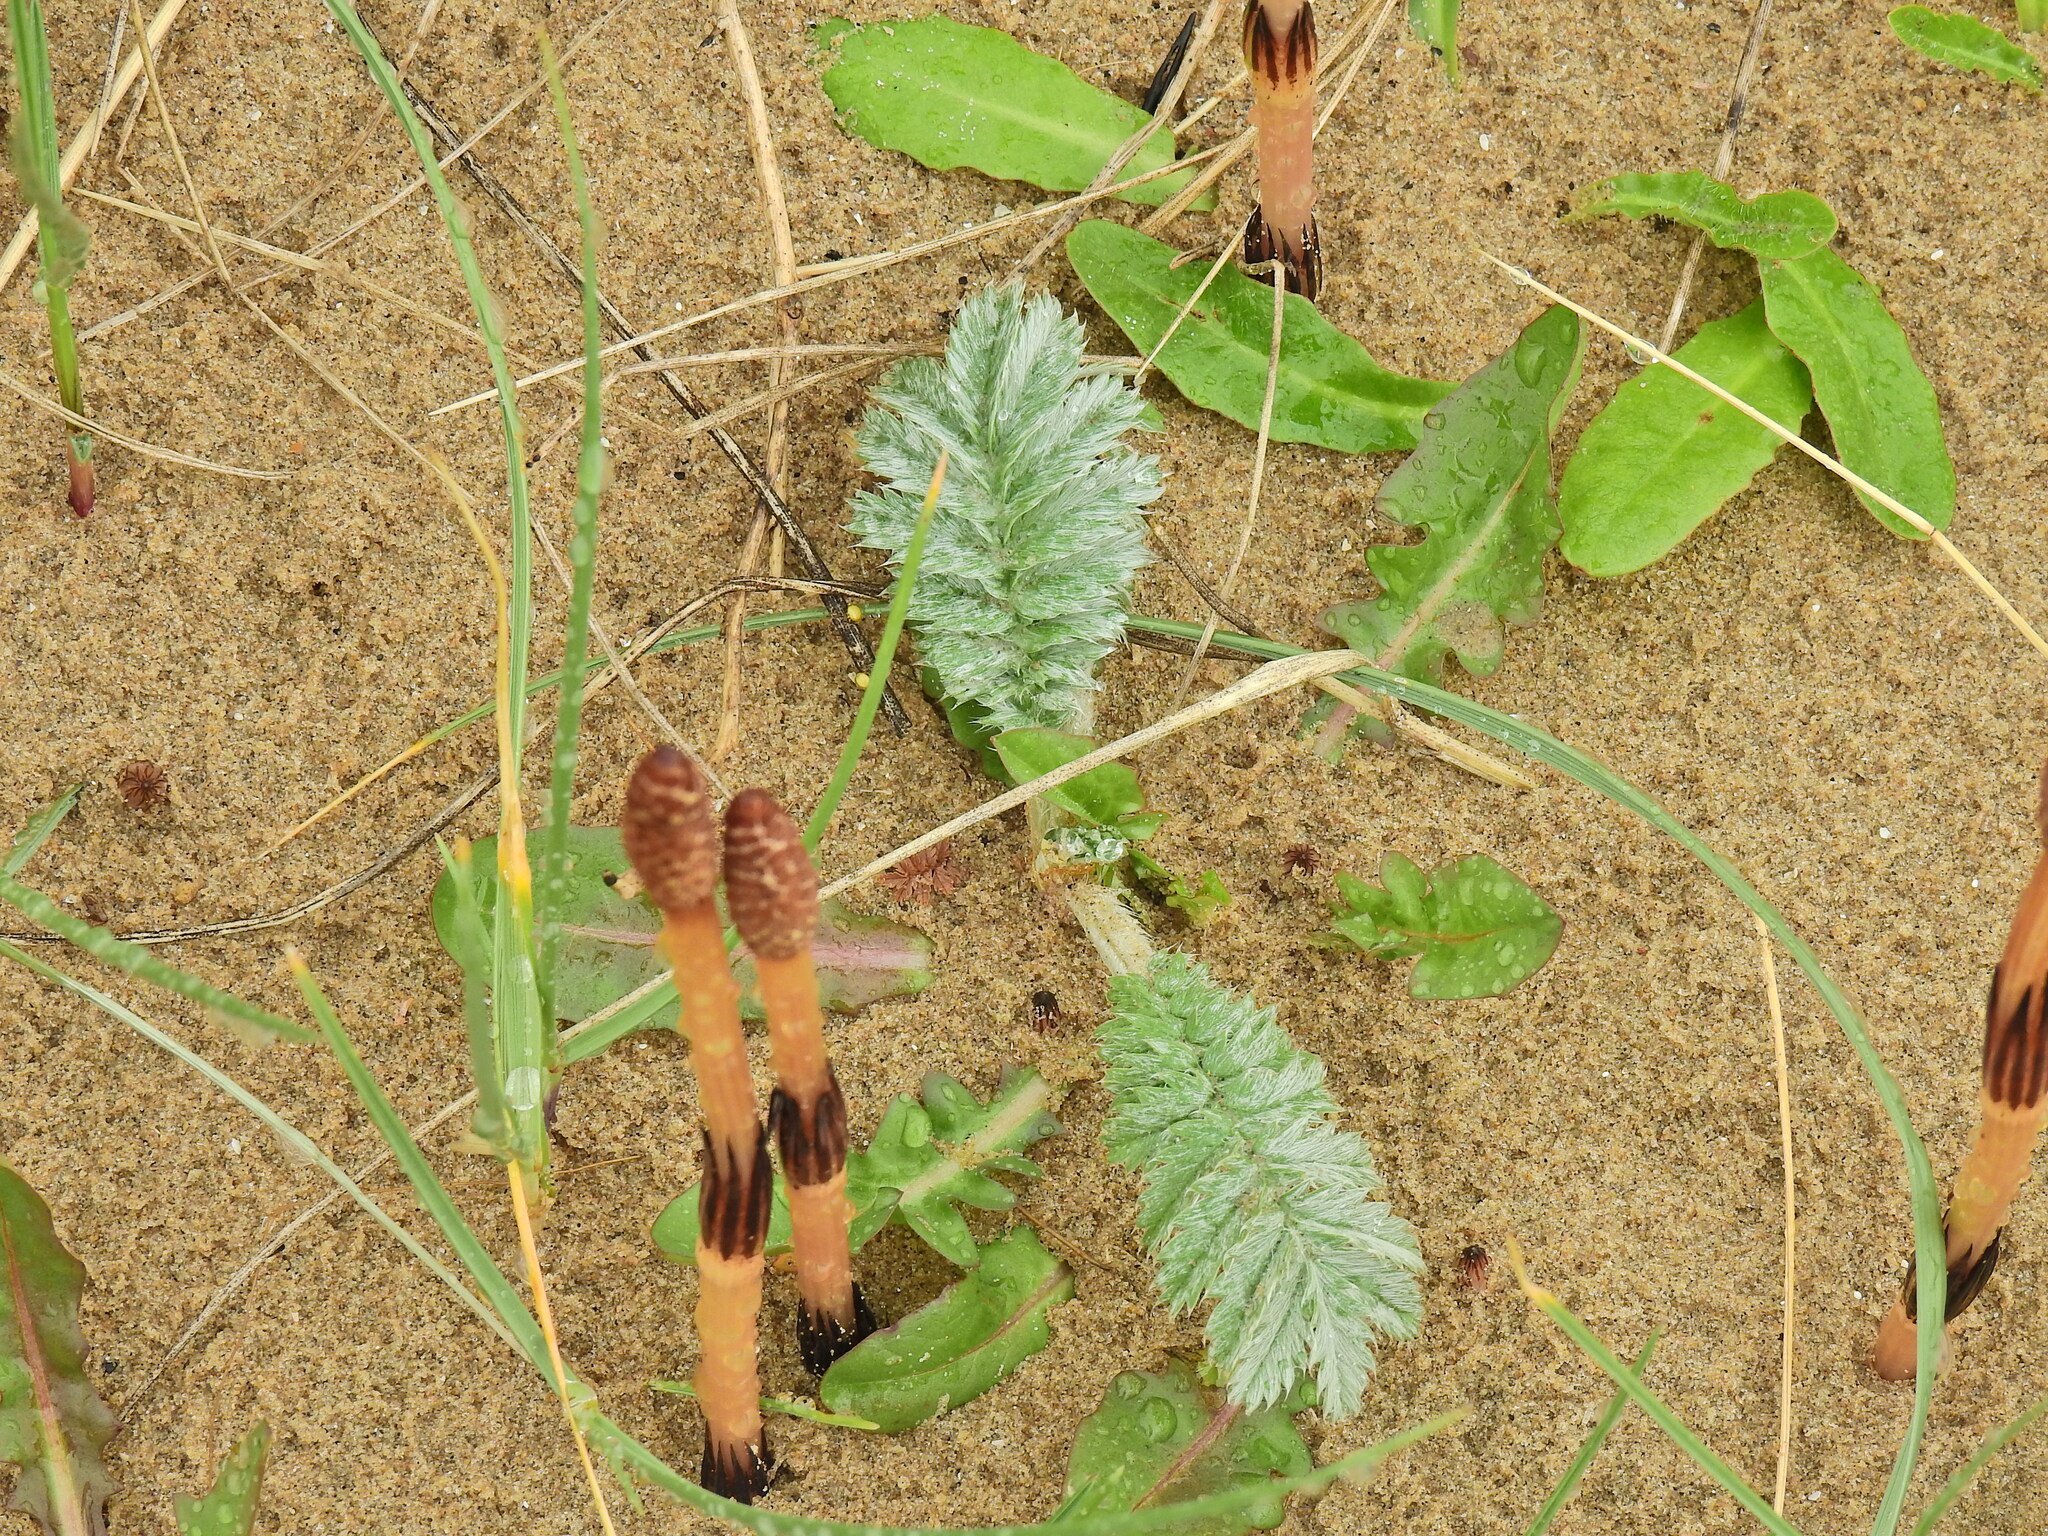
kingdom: Plantae
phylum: Tracheophyta
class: Magnoliopsida
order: Rosales
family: Rosaceae
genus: Argentina
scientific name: Argentina anserina
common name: Common silverweed
